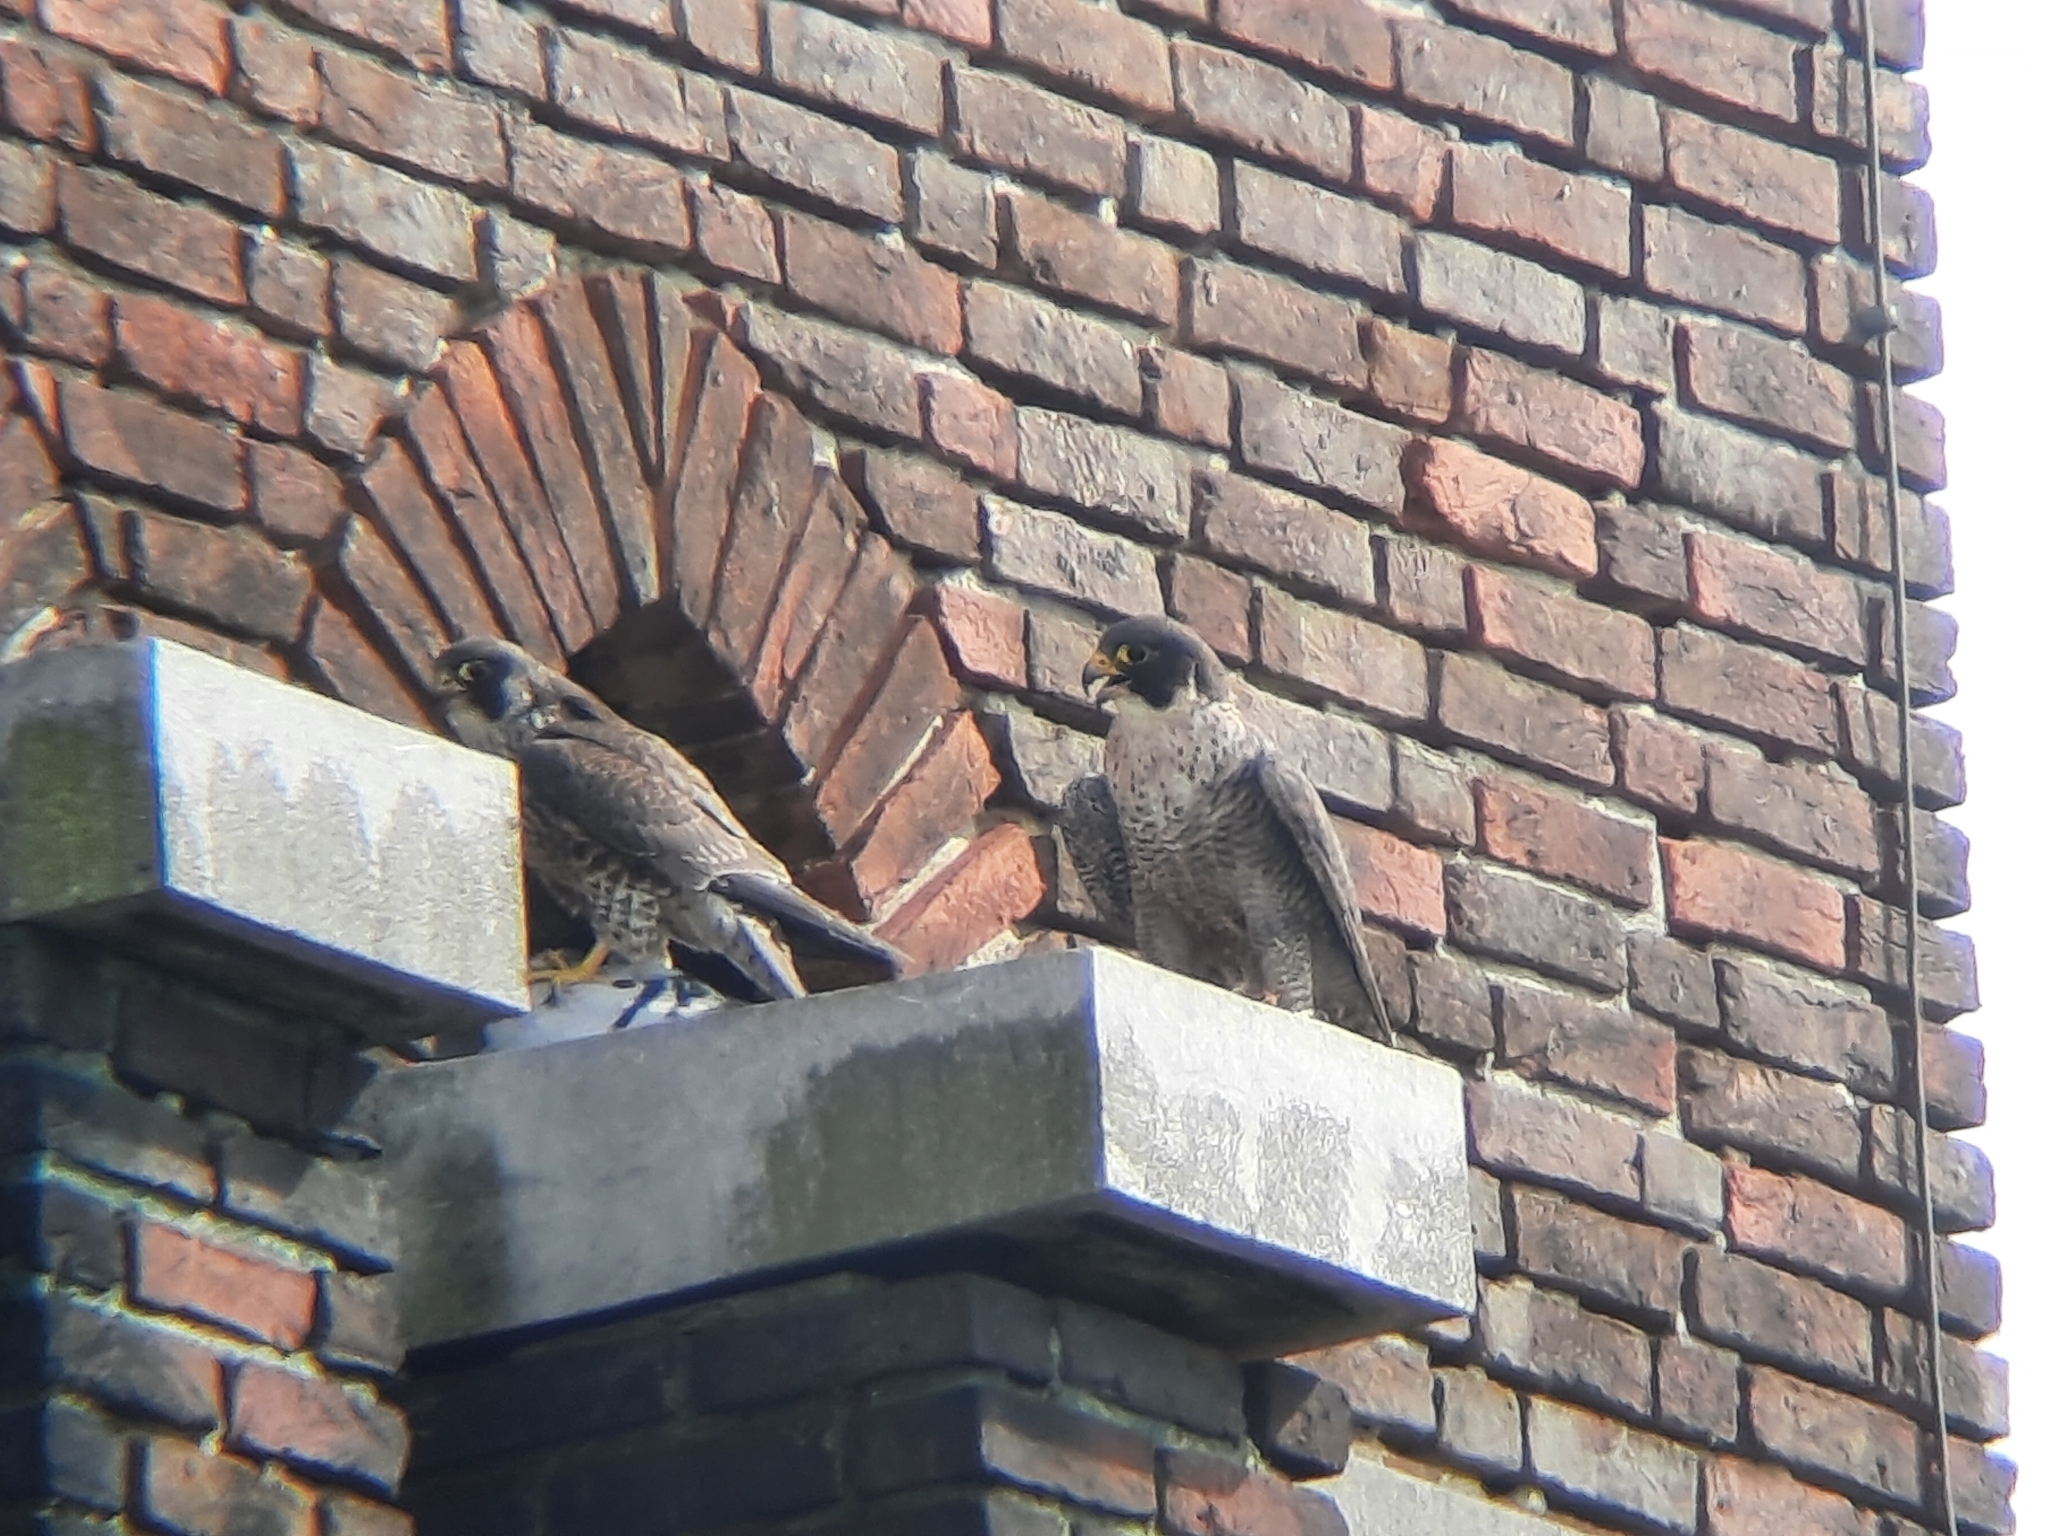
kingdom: Animalia
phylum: Chordata
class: Aves
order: Falconiformes
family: Falconidae
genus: Falco
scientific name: Falco peregrinus
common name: Peregrine falcon
